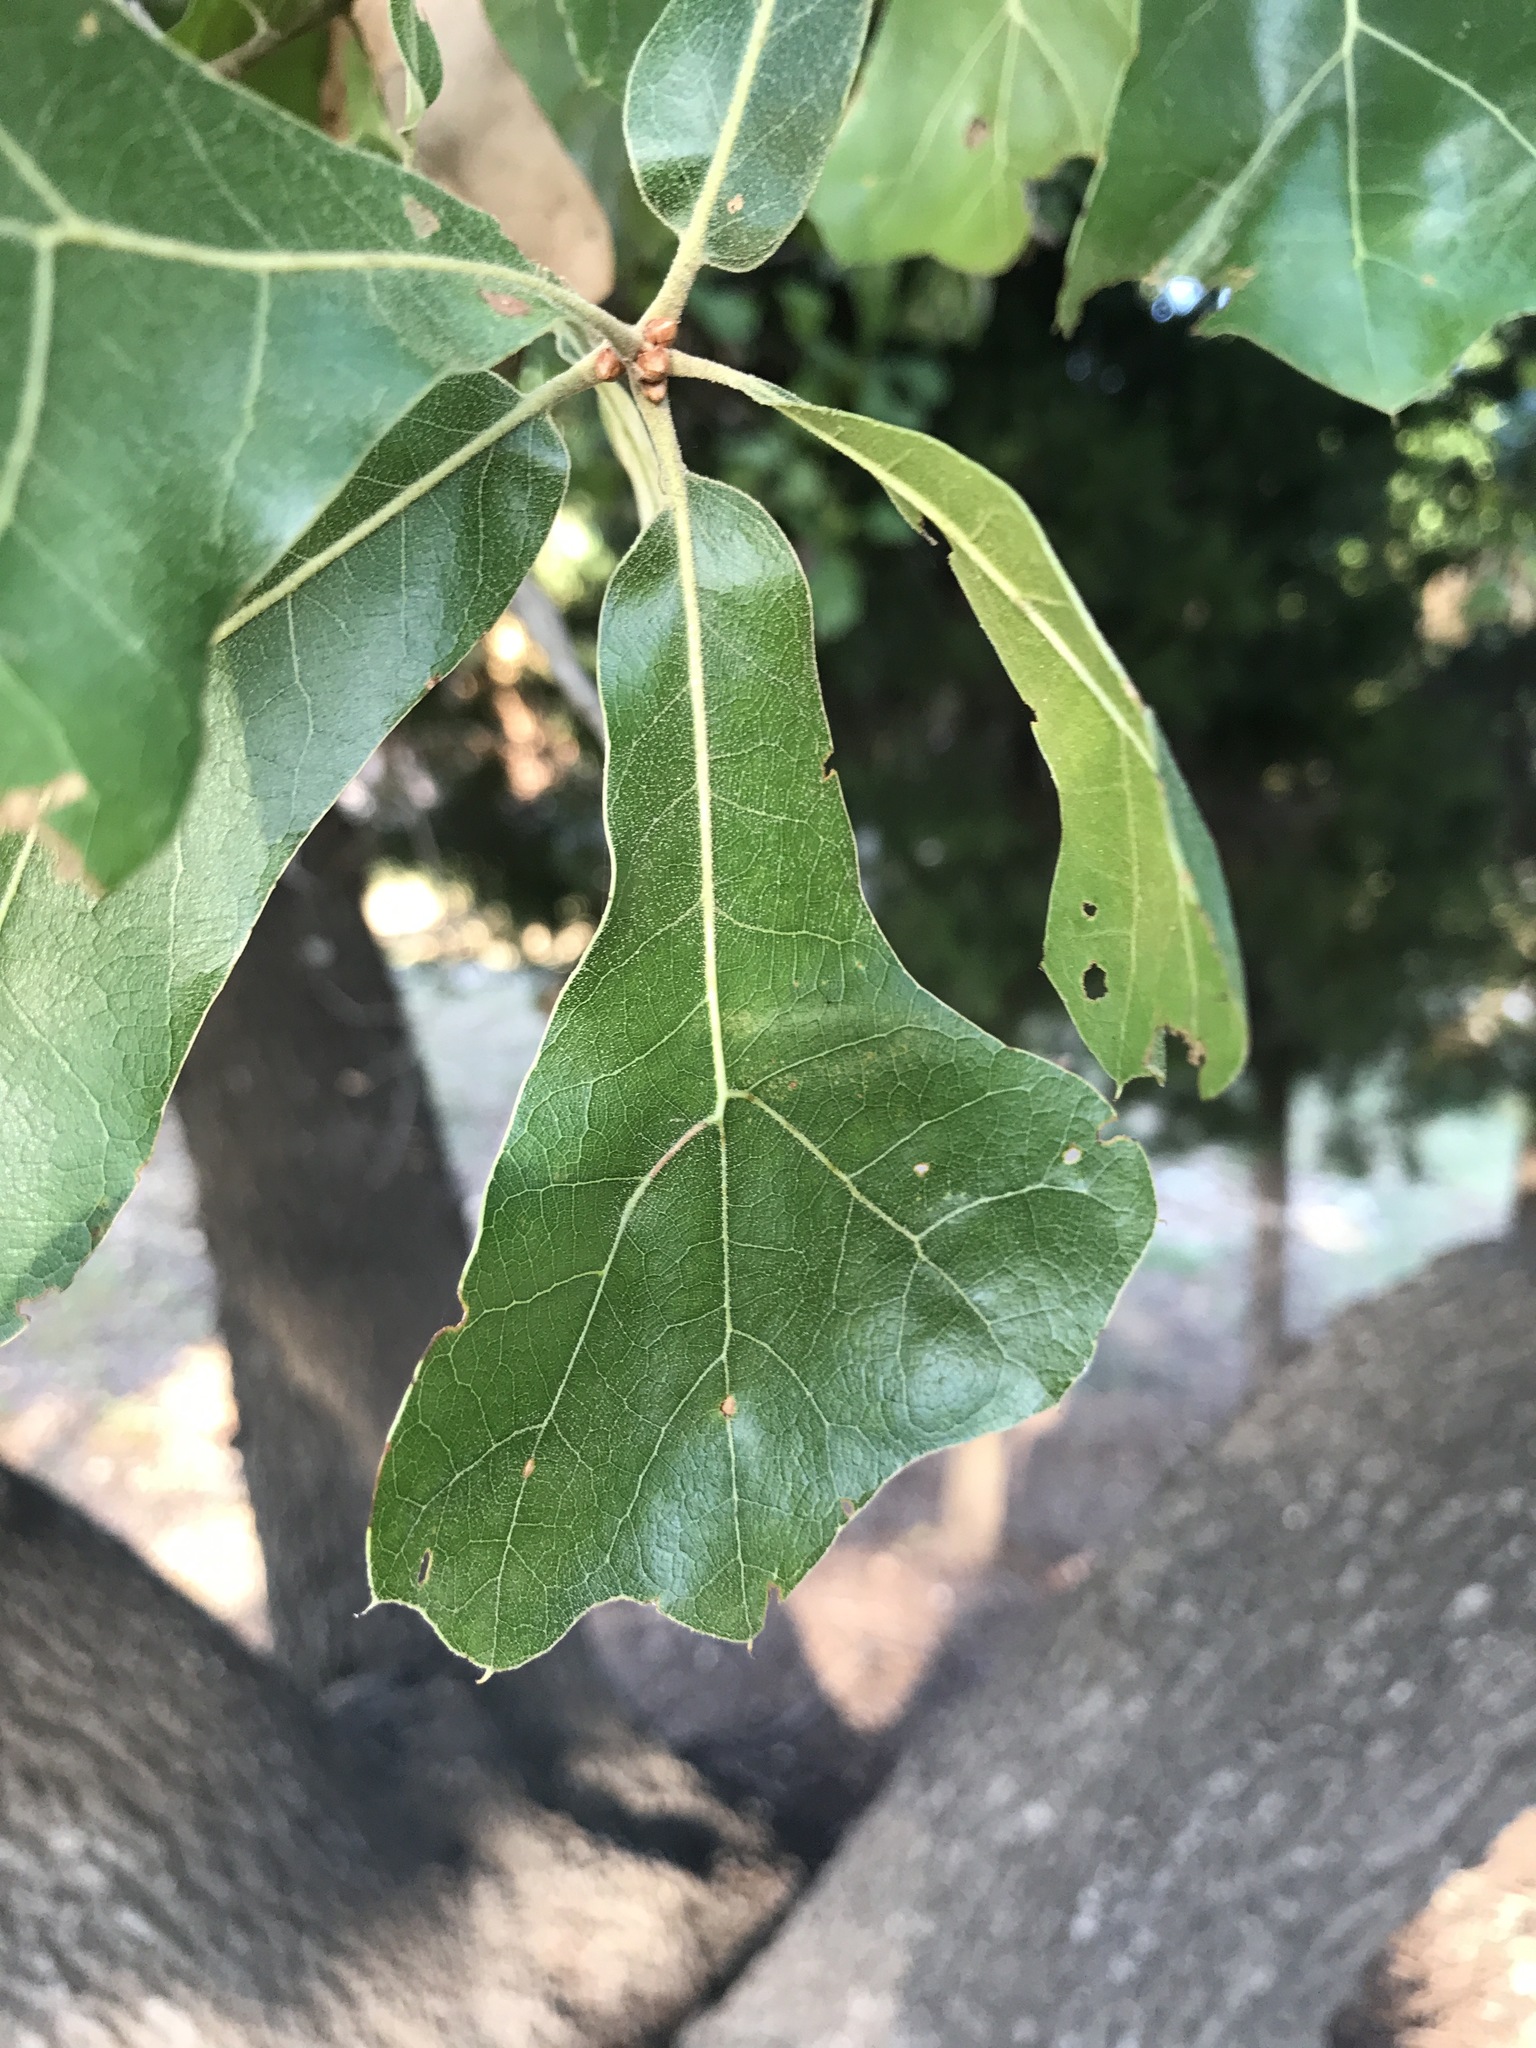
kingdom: Plantae
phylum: Tracheophyta
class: Magnoliopsida
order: Fagales
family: Fagaceae
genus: Quercus
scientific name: Quercus marilandica
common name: Blackjack oak
